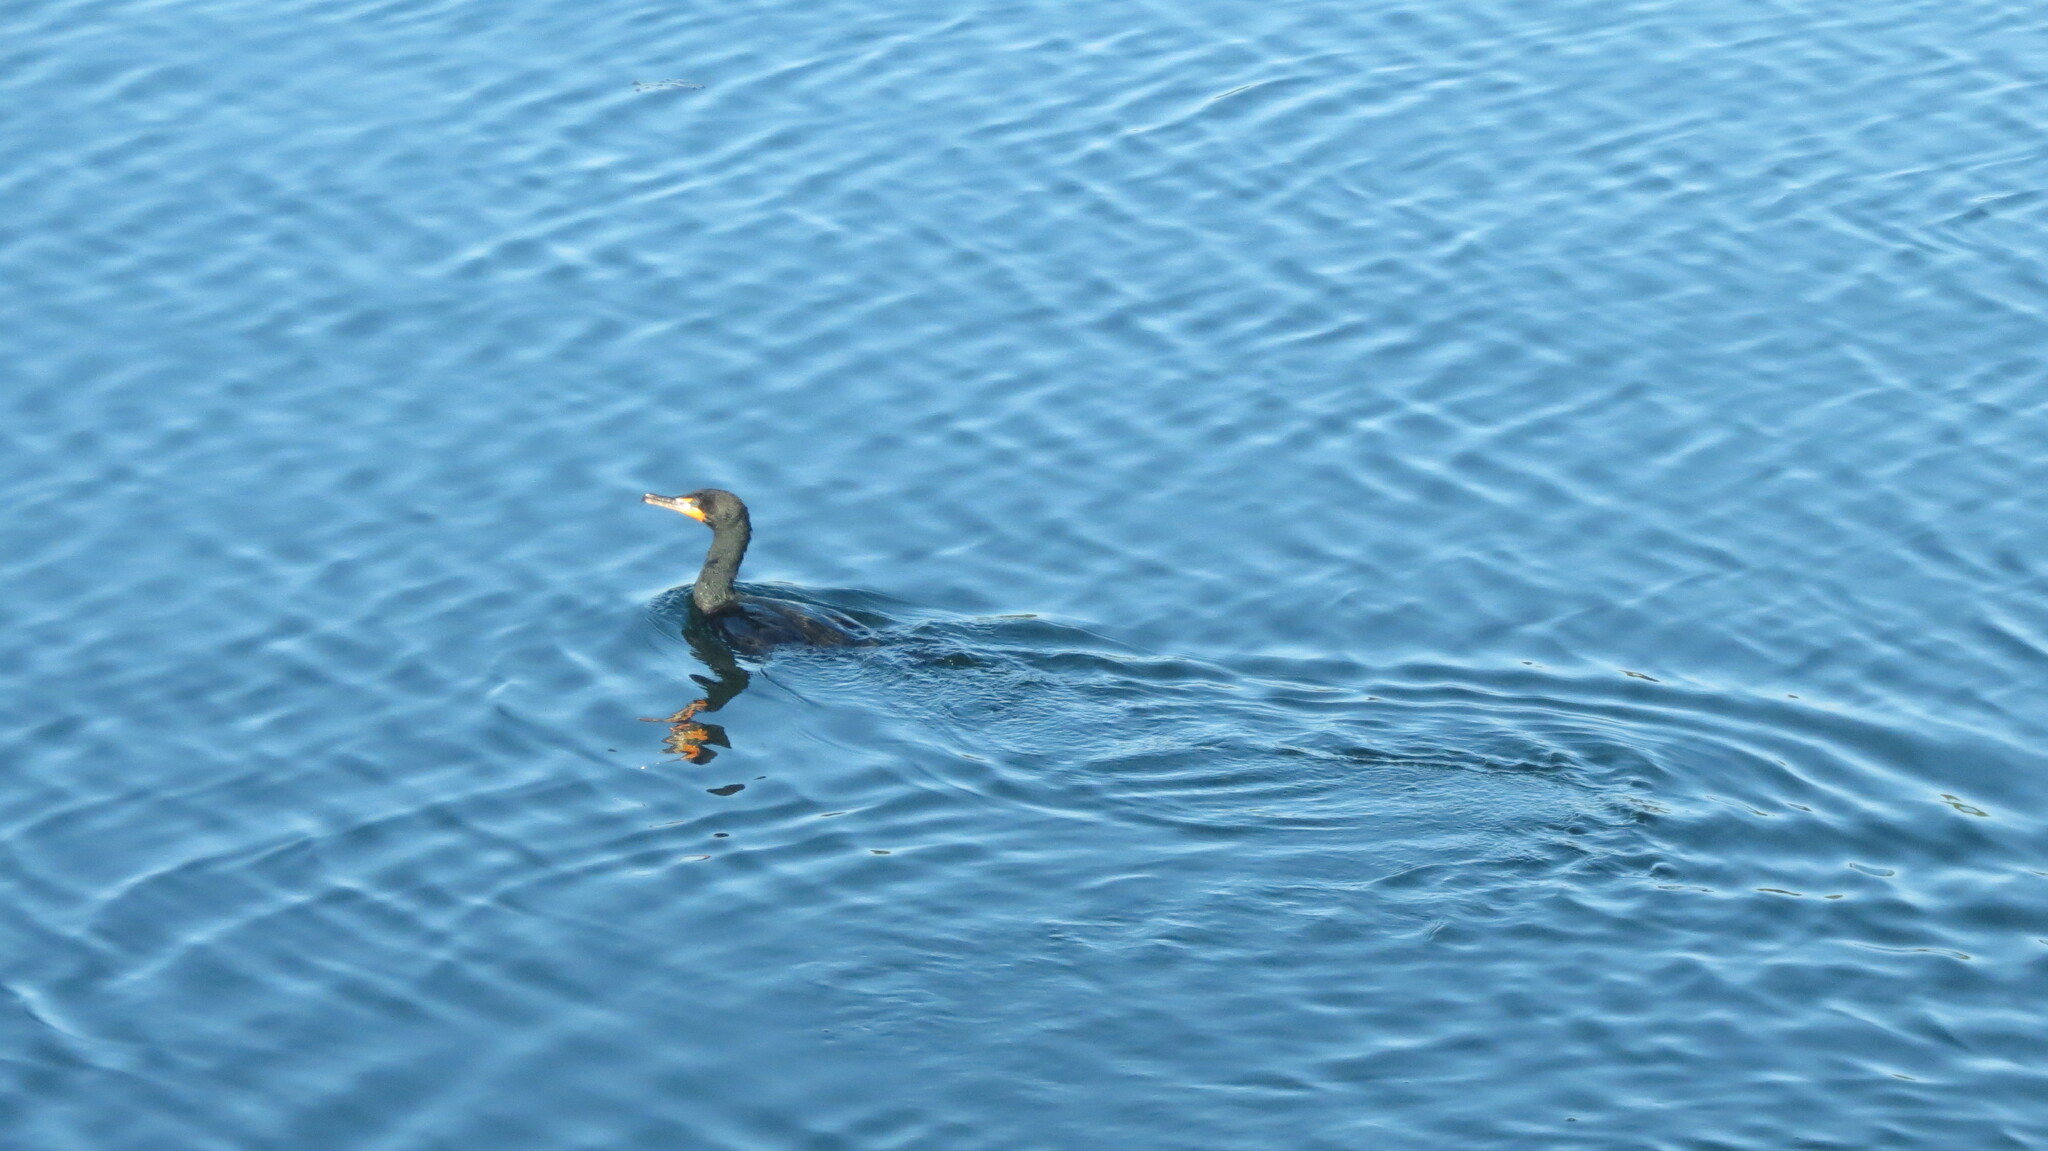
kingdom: Animalia
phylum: Chordata
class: Aves
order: Suliformes
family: Phalacrocoracidae
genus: Phalacrocorax
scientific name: Phalacrocorax auritus
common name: Double-crested cormorant
